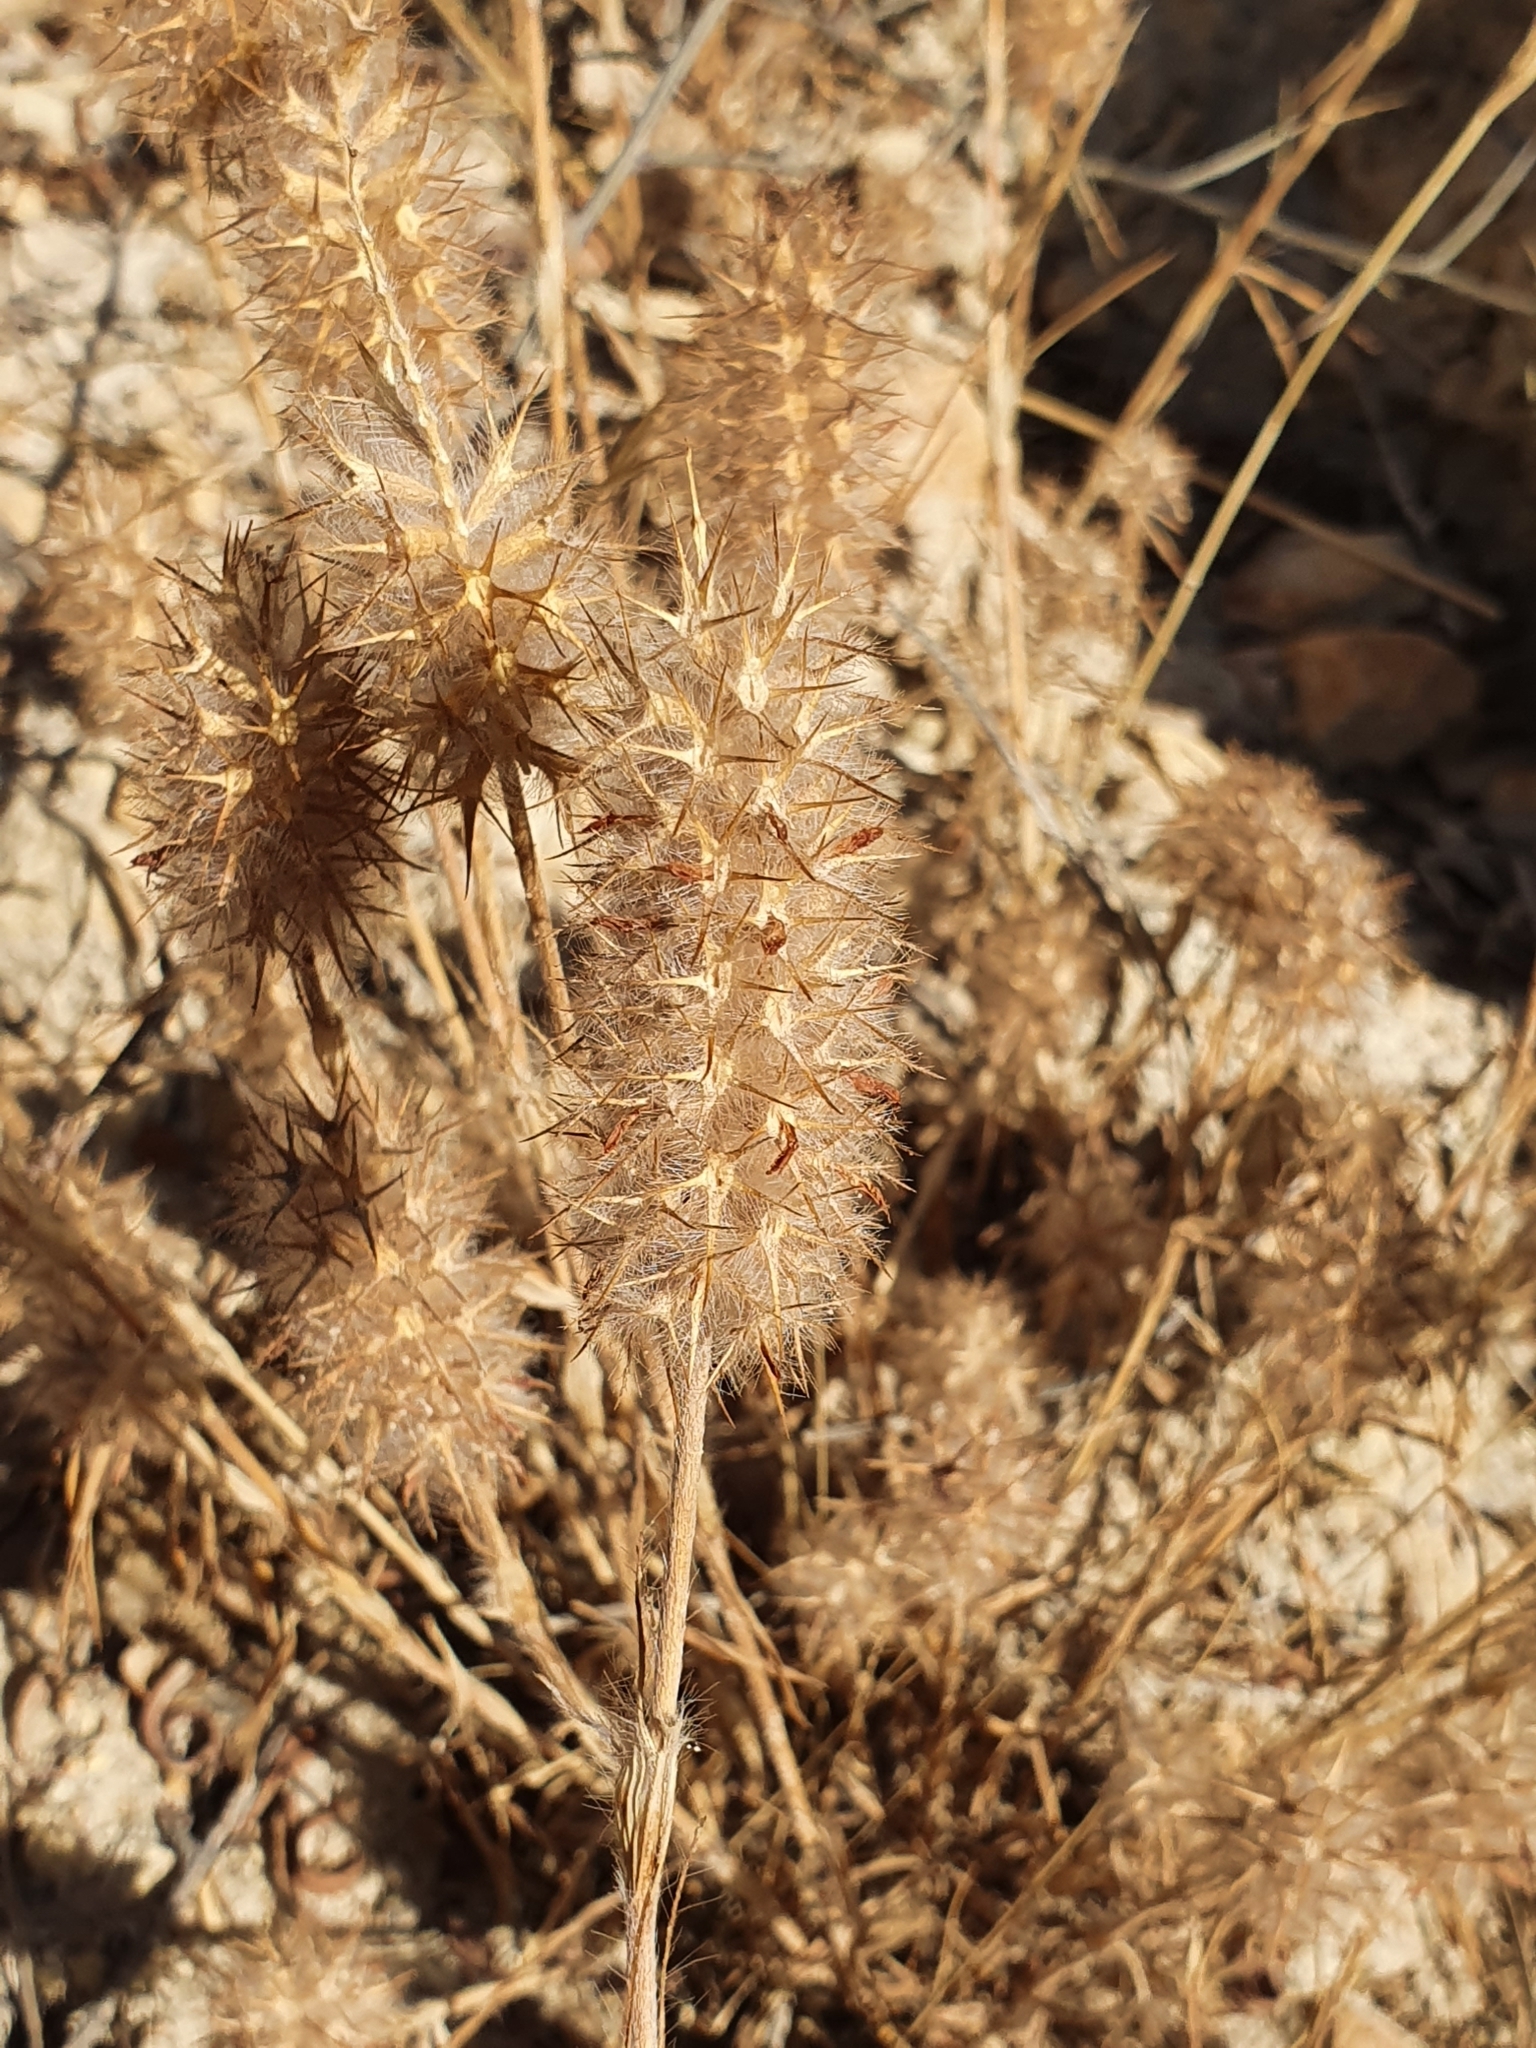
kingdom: Plantae
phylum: Tracheophyta
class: Magnoliopsida
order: Fabales
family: Fabaceae
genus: Trifolium
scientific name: Trifolium angustifolium
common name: Narrow clover
